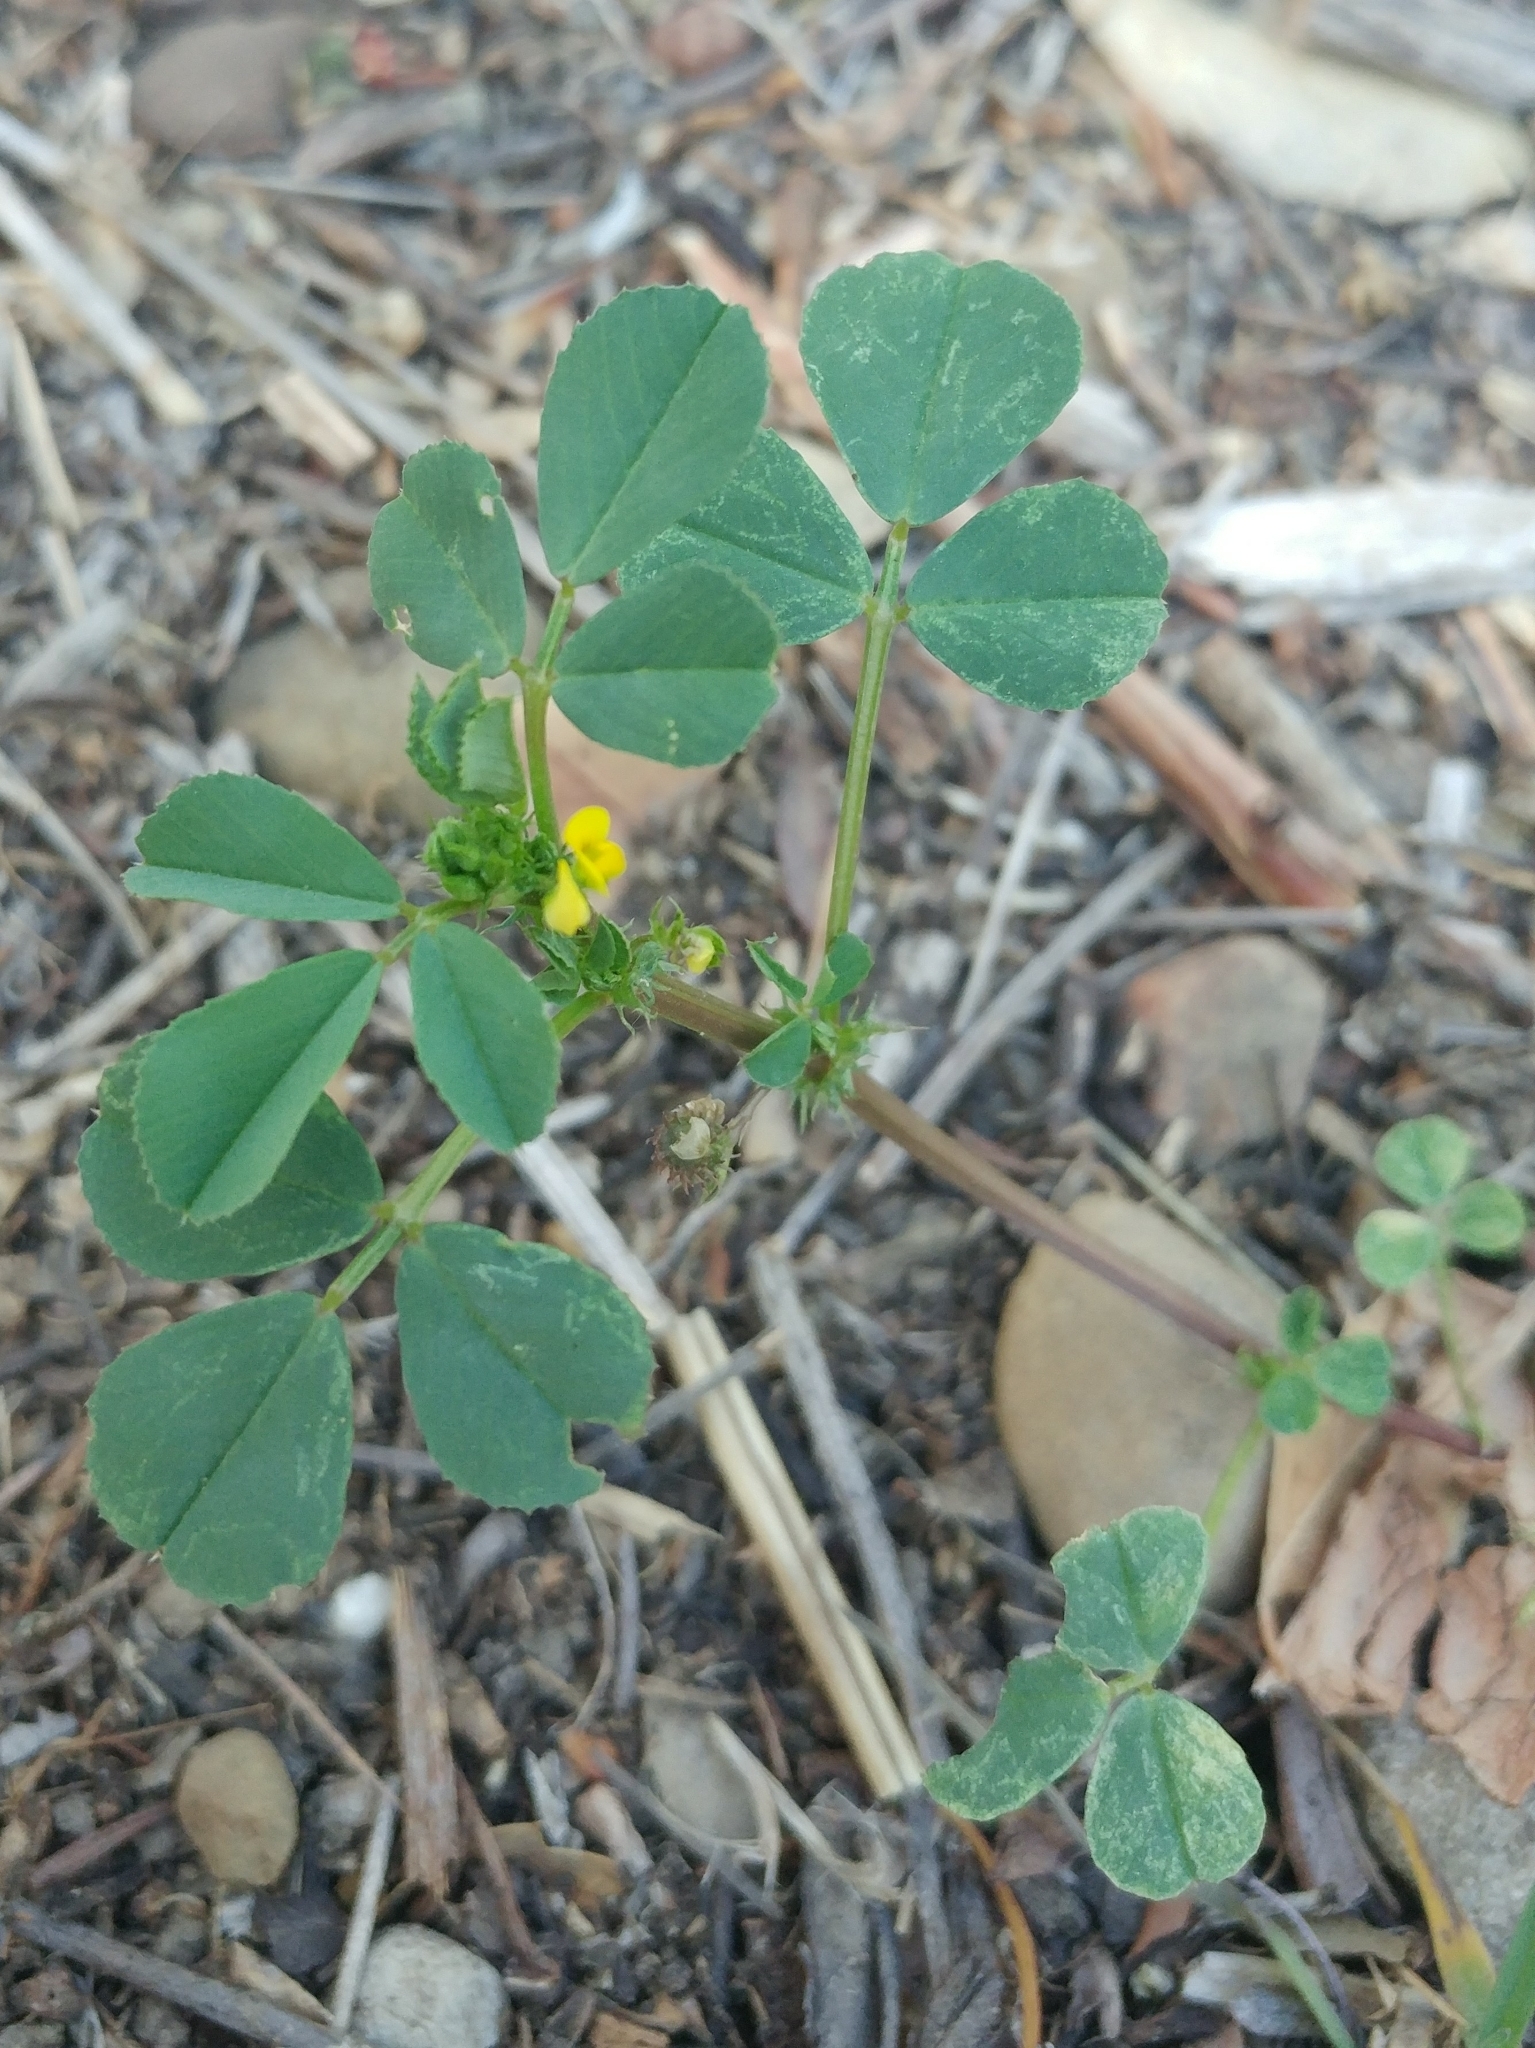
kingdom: Plantae
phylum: Tracheophyta
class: Magnoliopsida
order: Fabales
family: Fabaceae
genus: Medicago
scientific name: Medicago polymorpha
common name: Burclover
